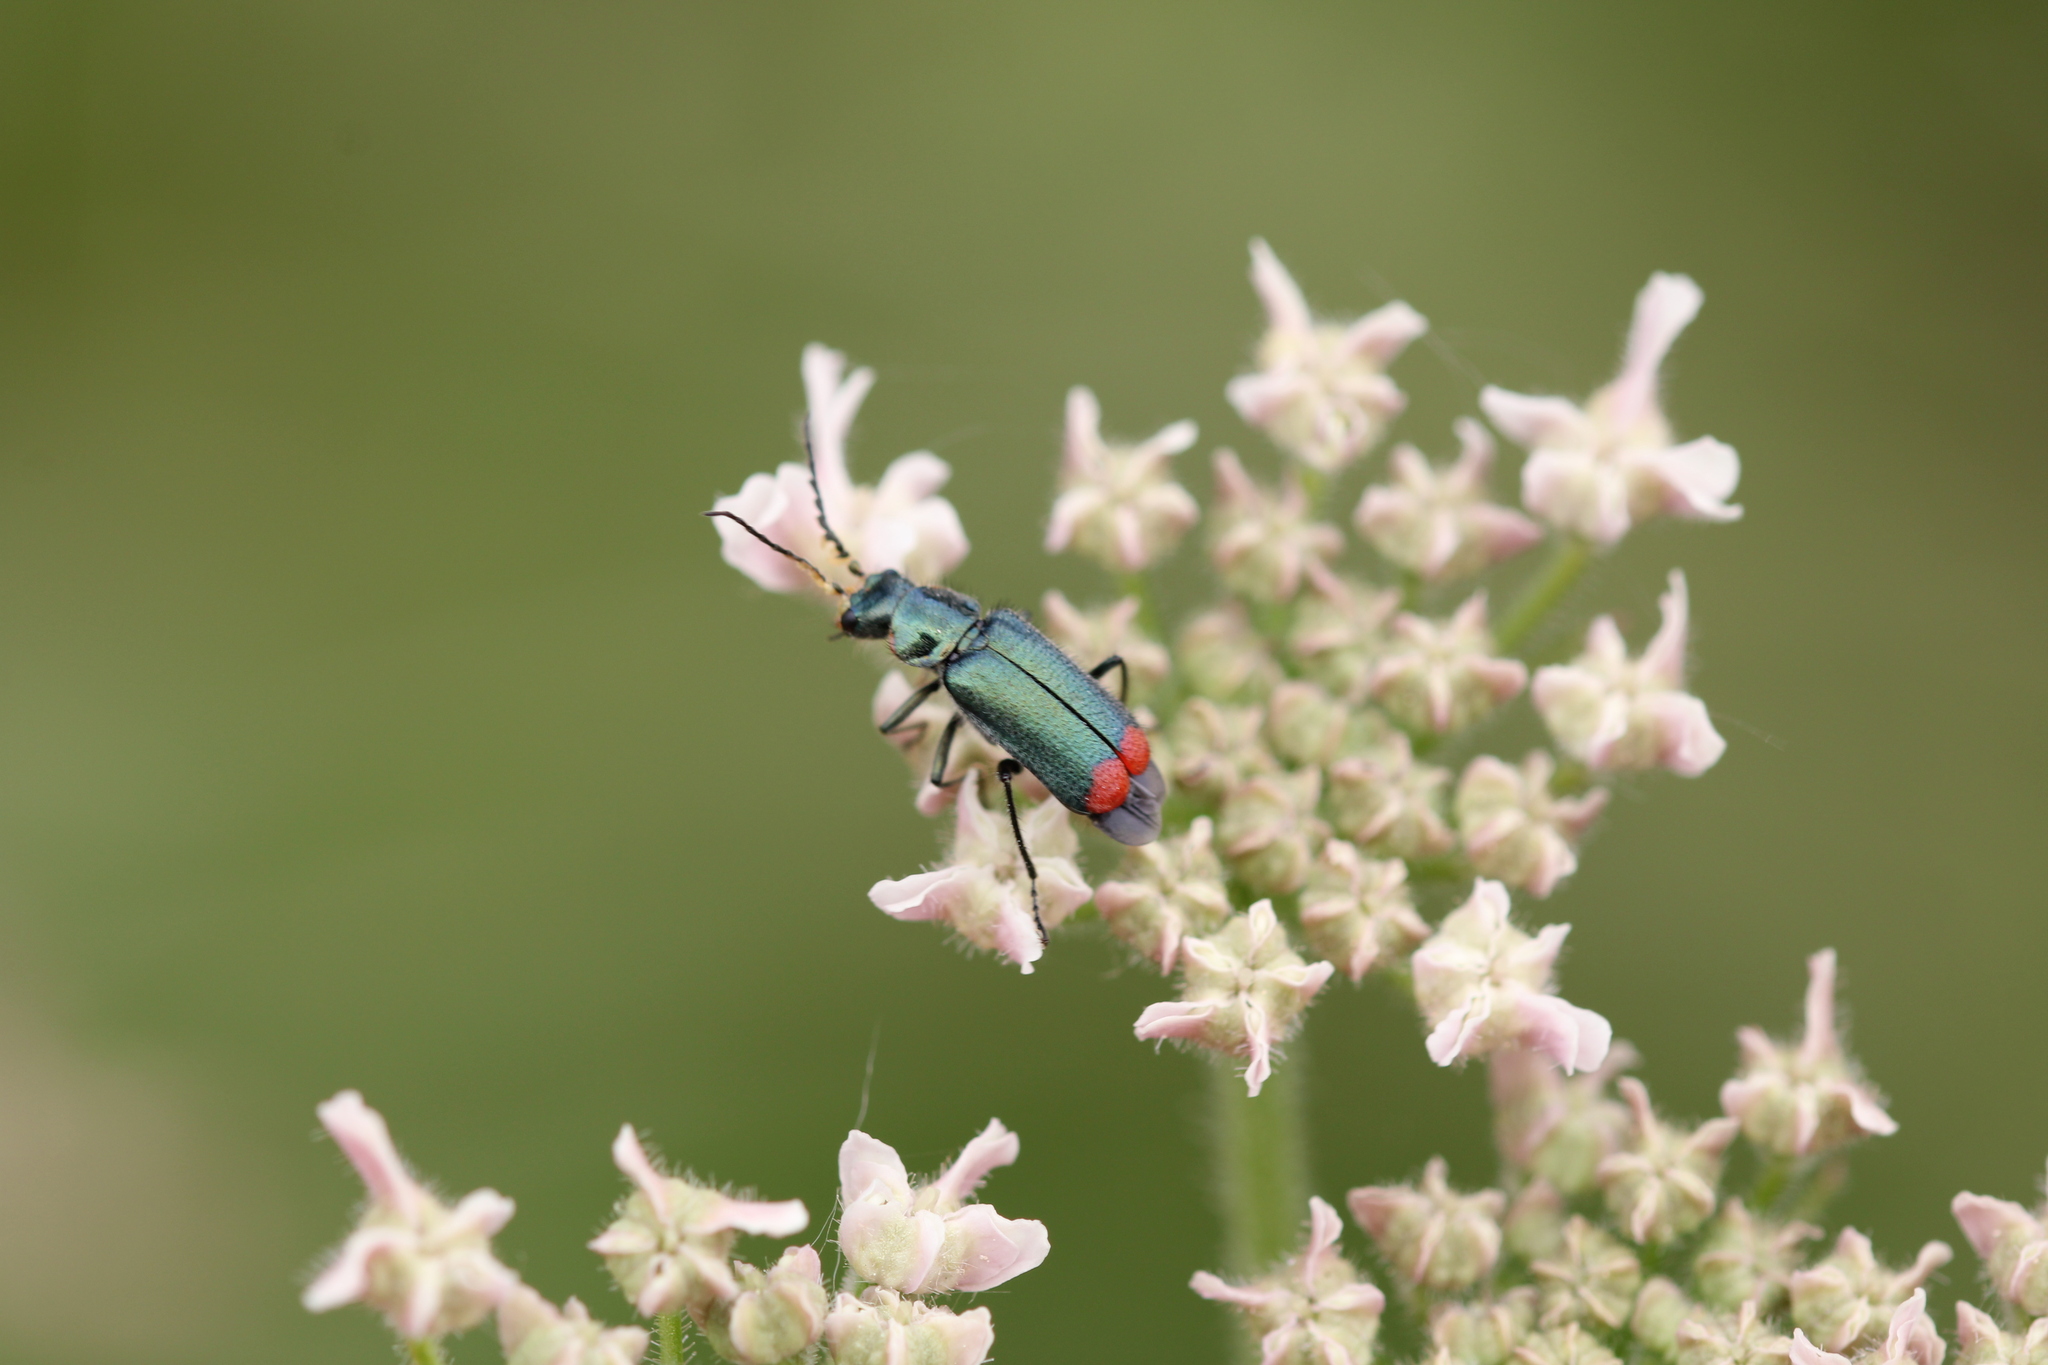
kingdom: Animalia
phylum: Arthropoda
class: Insecta
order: Coleoptera
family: Melyridae
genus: Malachius
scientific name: Malachius bipustulatus
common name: Malachite beetle
